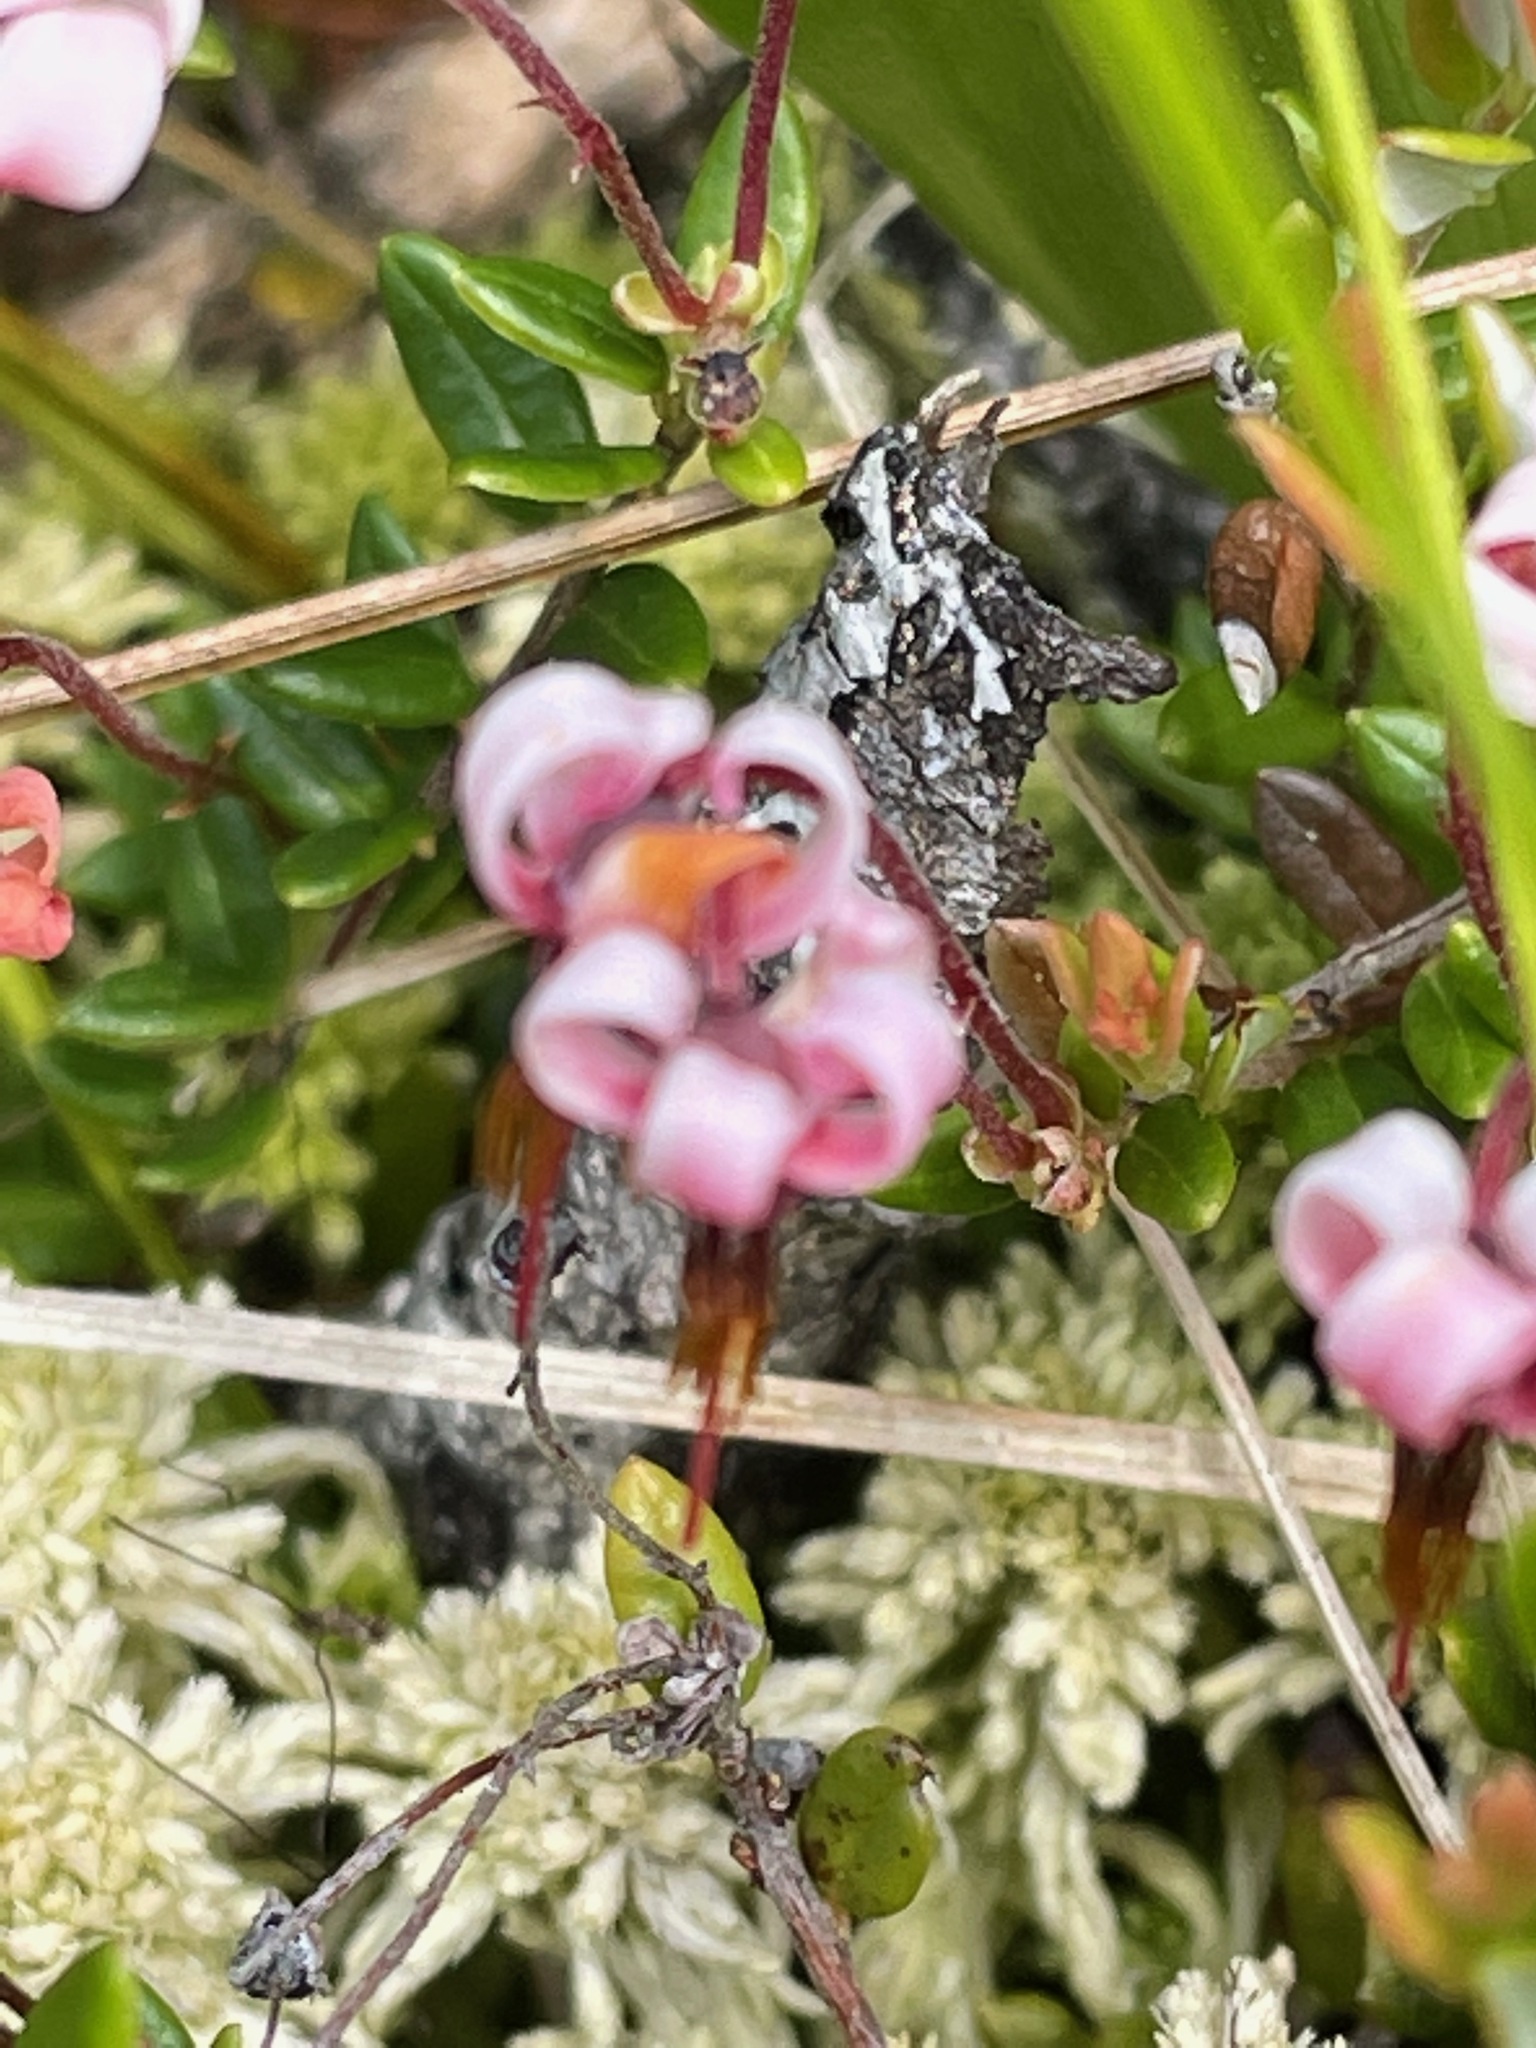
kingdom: Plantae
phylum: Tracheophyta
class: Magnoliopsida
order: Ericales
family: Ericaceae
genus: Vaccinium
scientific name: Vaccinium oxycoccos
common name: Cranberry
